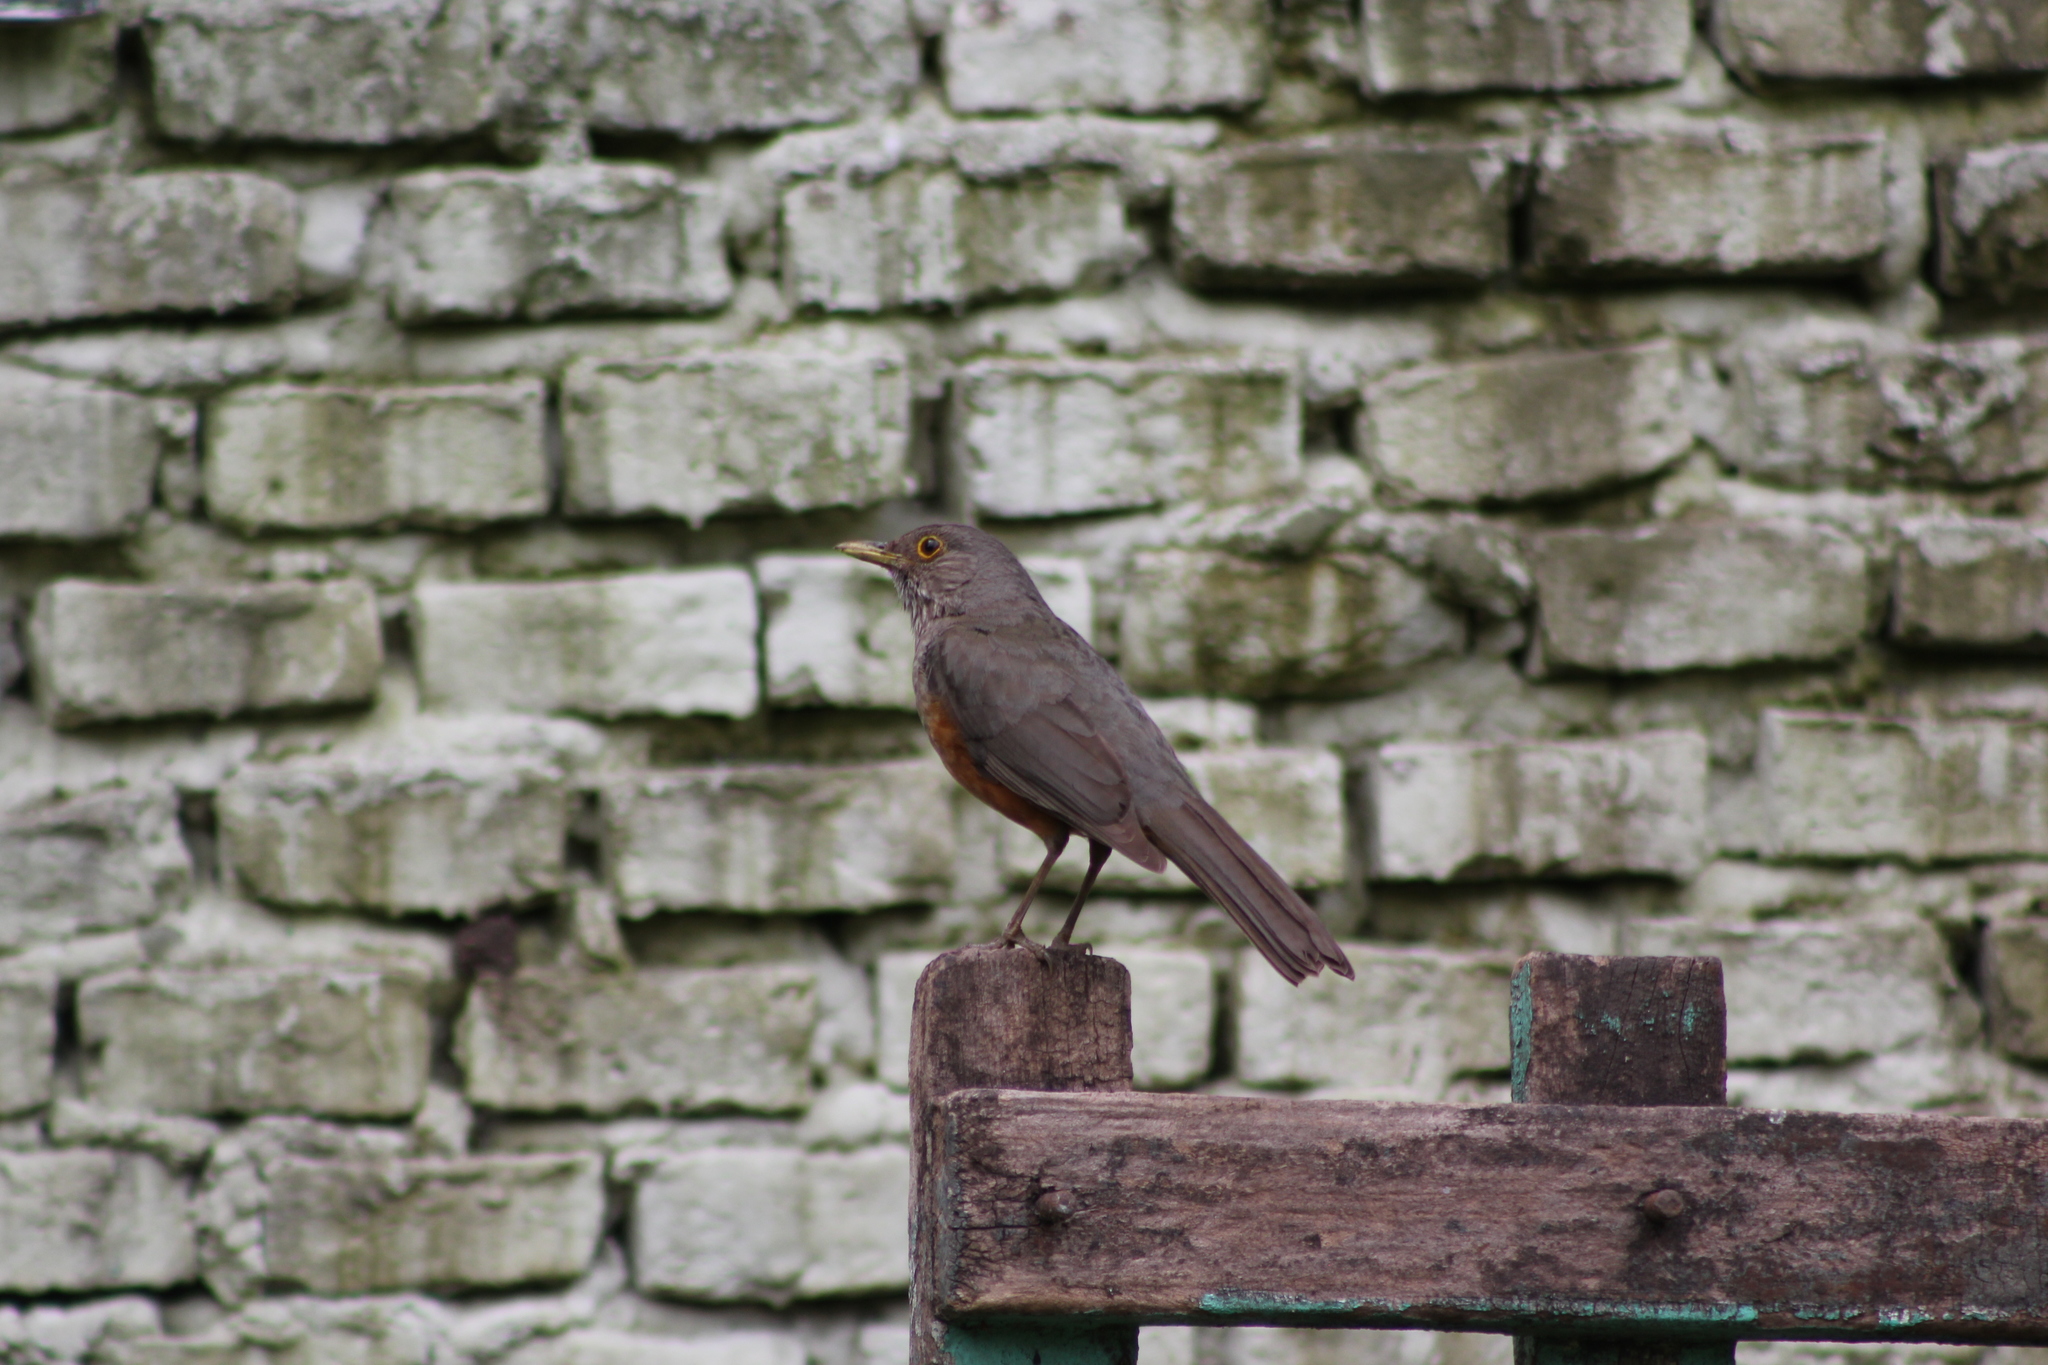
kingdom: Animalia
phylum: Chordata
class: Aves
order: Passeriformes
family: Turdidae
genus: Turdus
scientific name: Turdus rufiventris
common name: Rufous-bellied thrush
